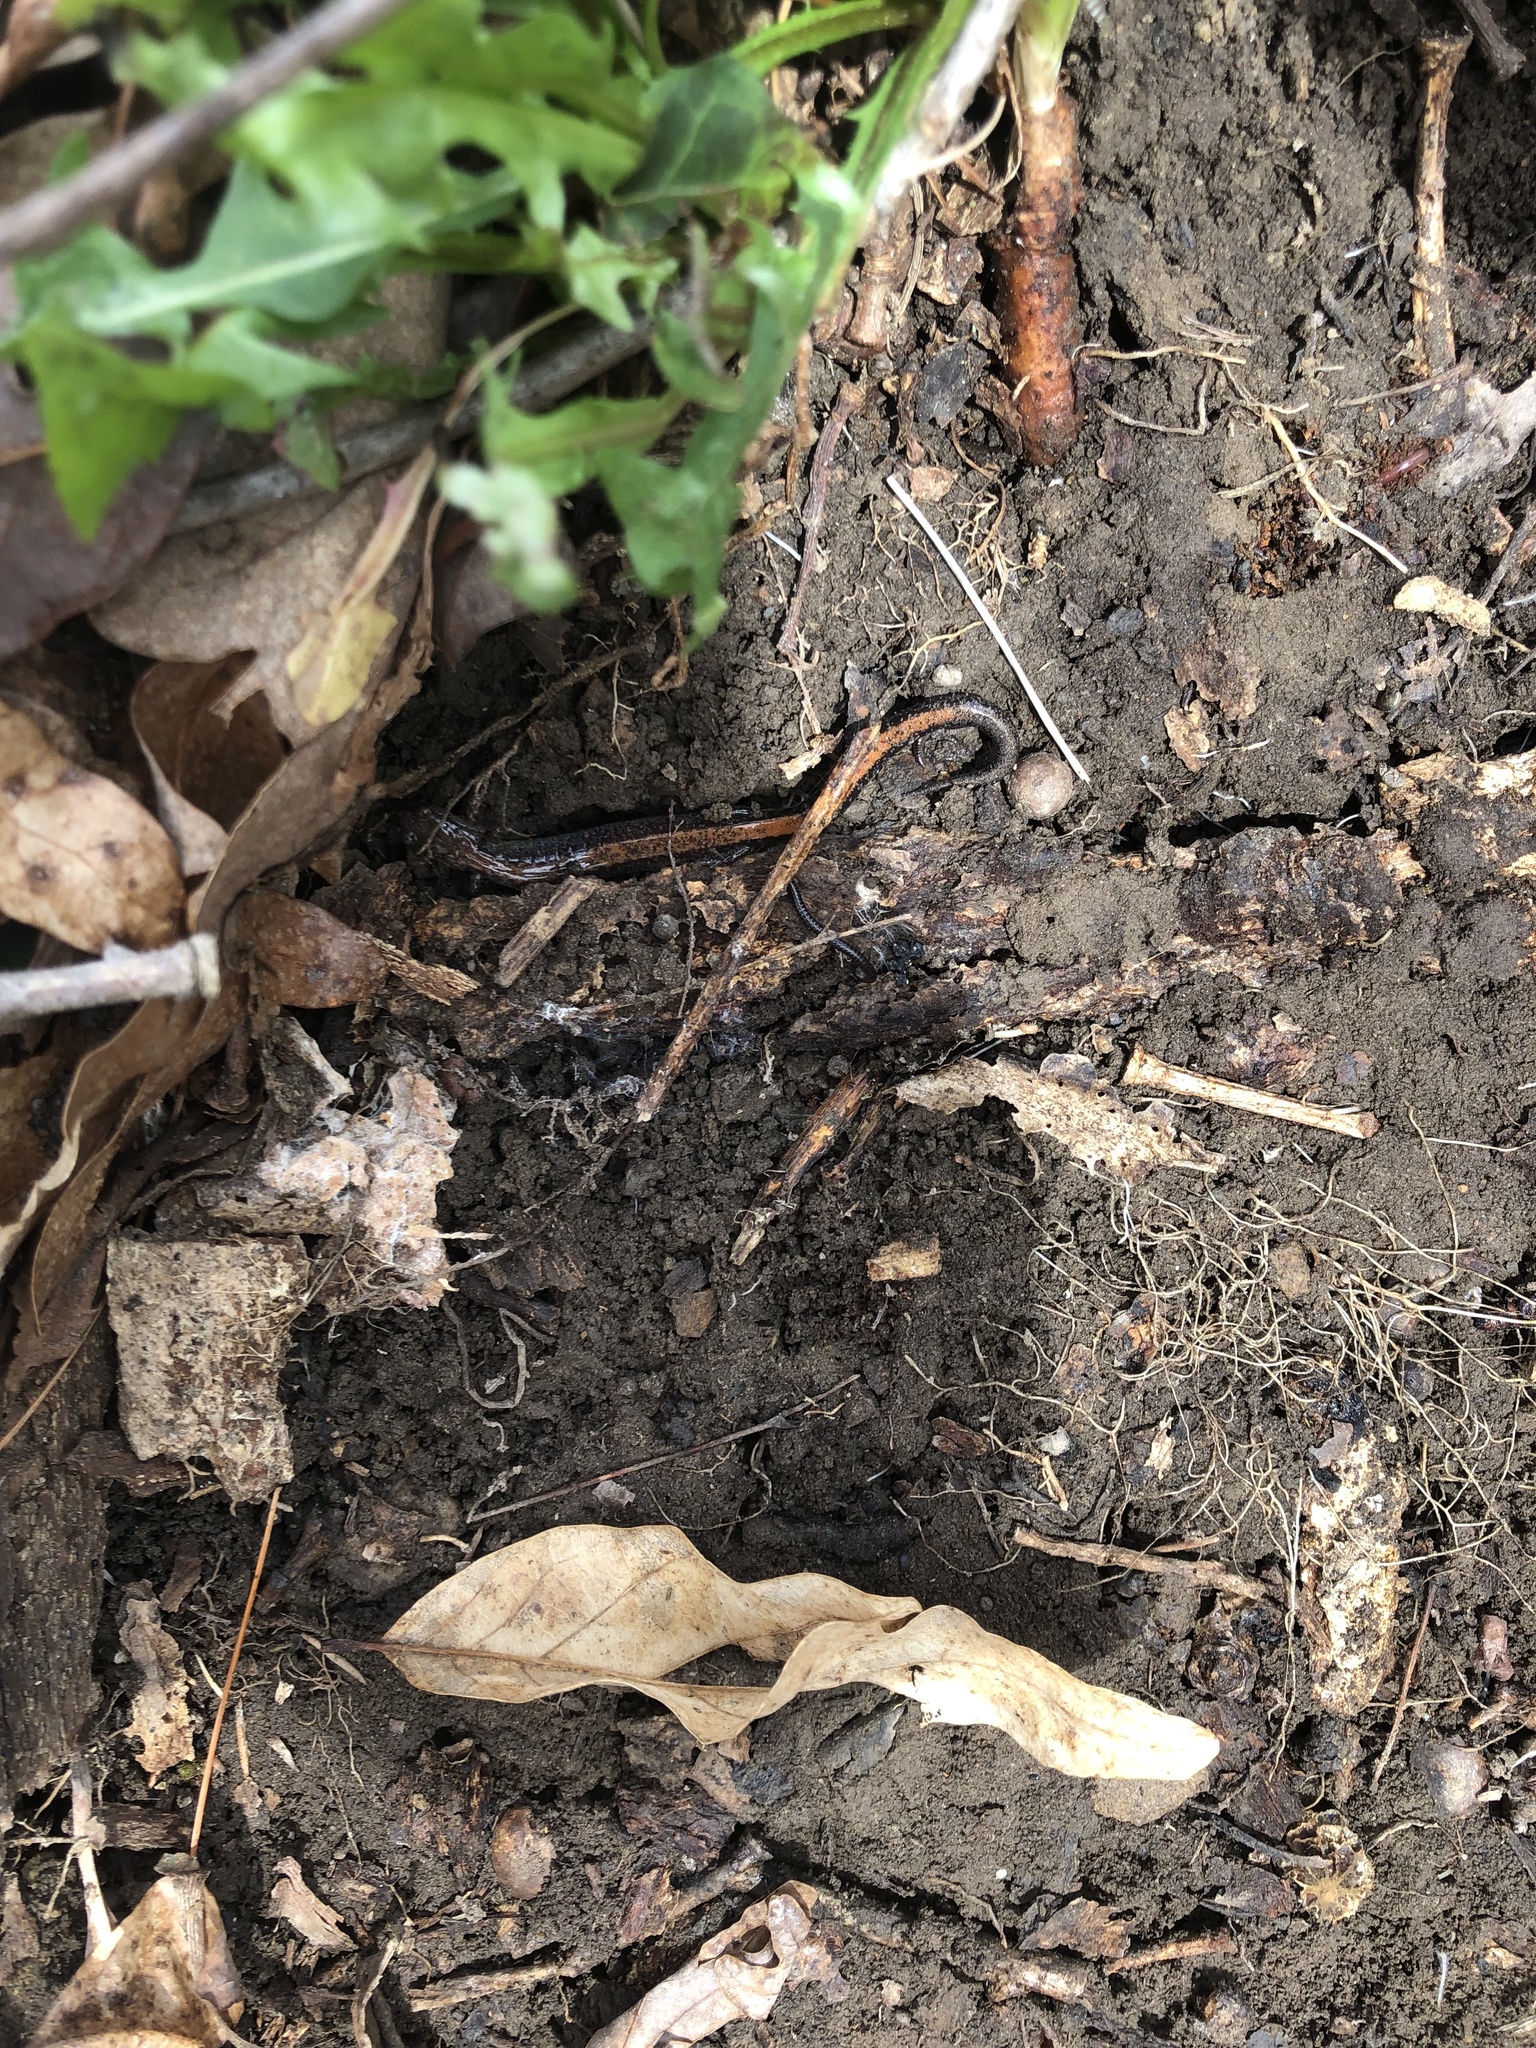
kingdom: Animalia
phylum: Chordata
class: Amphibia
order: Caudata
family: Plethodontidae
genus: Plethodon
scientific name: Plethodon cinereus
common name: Redback salamander
